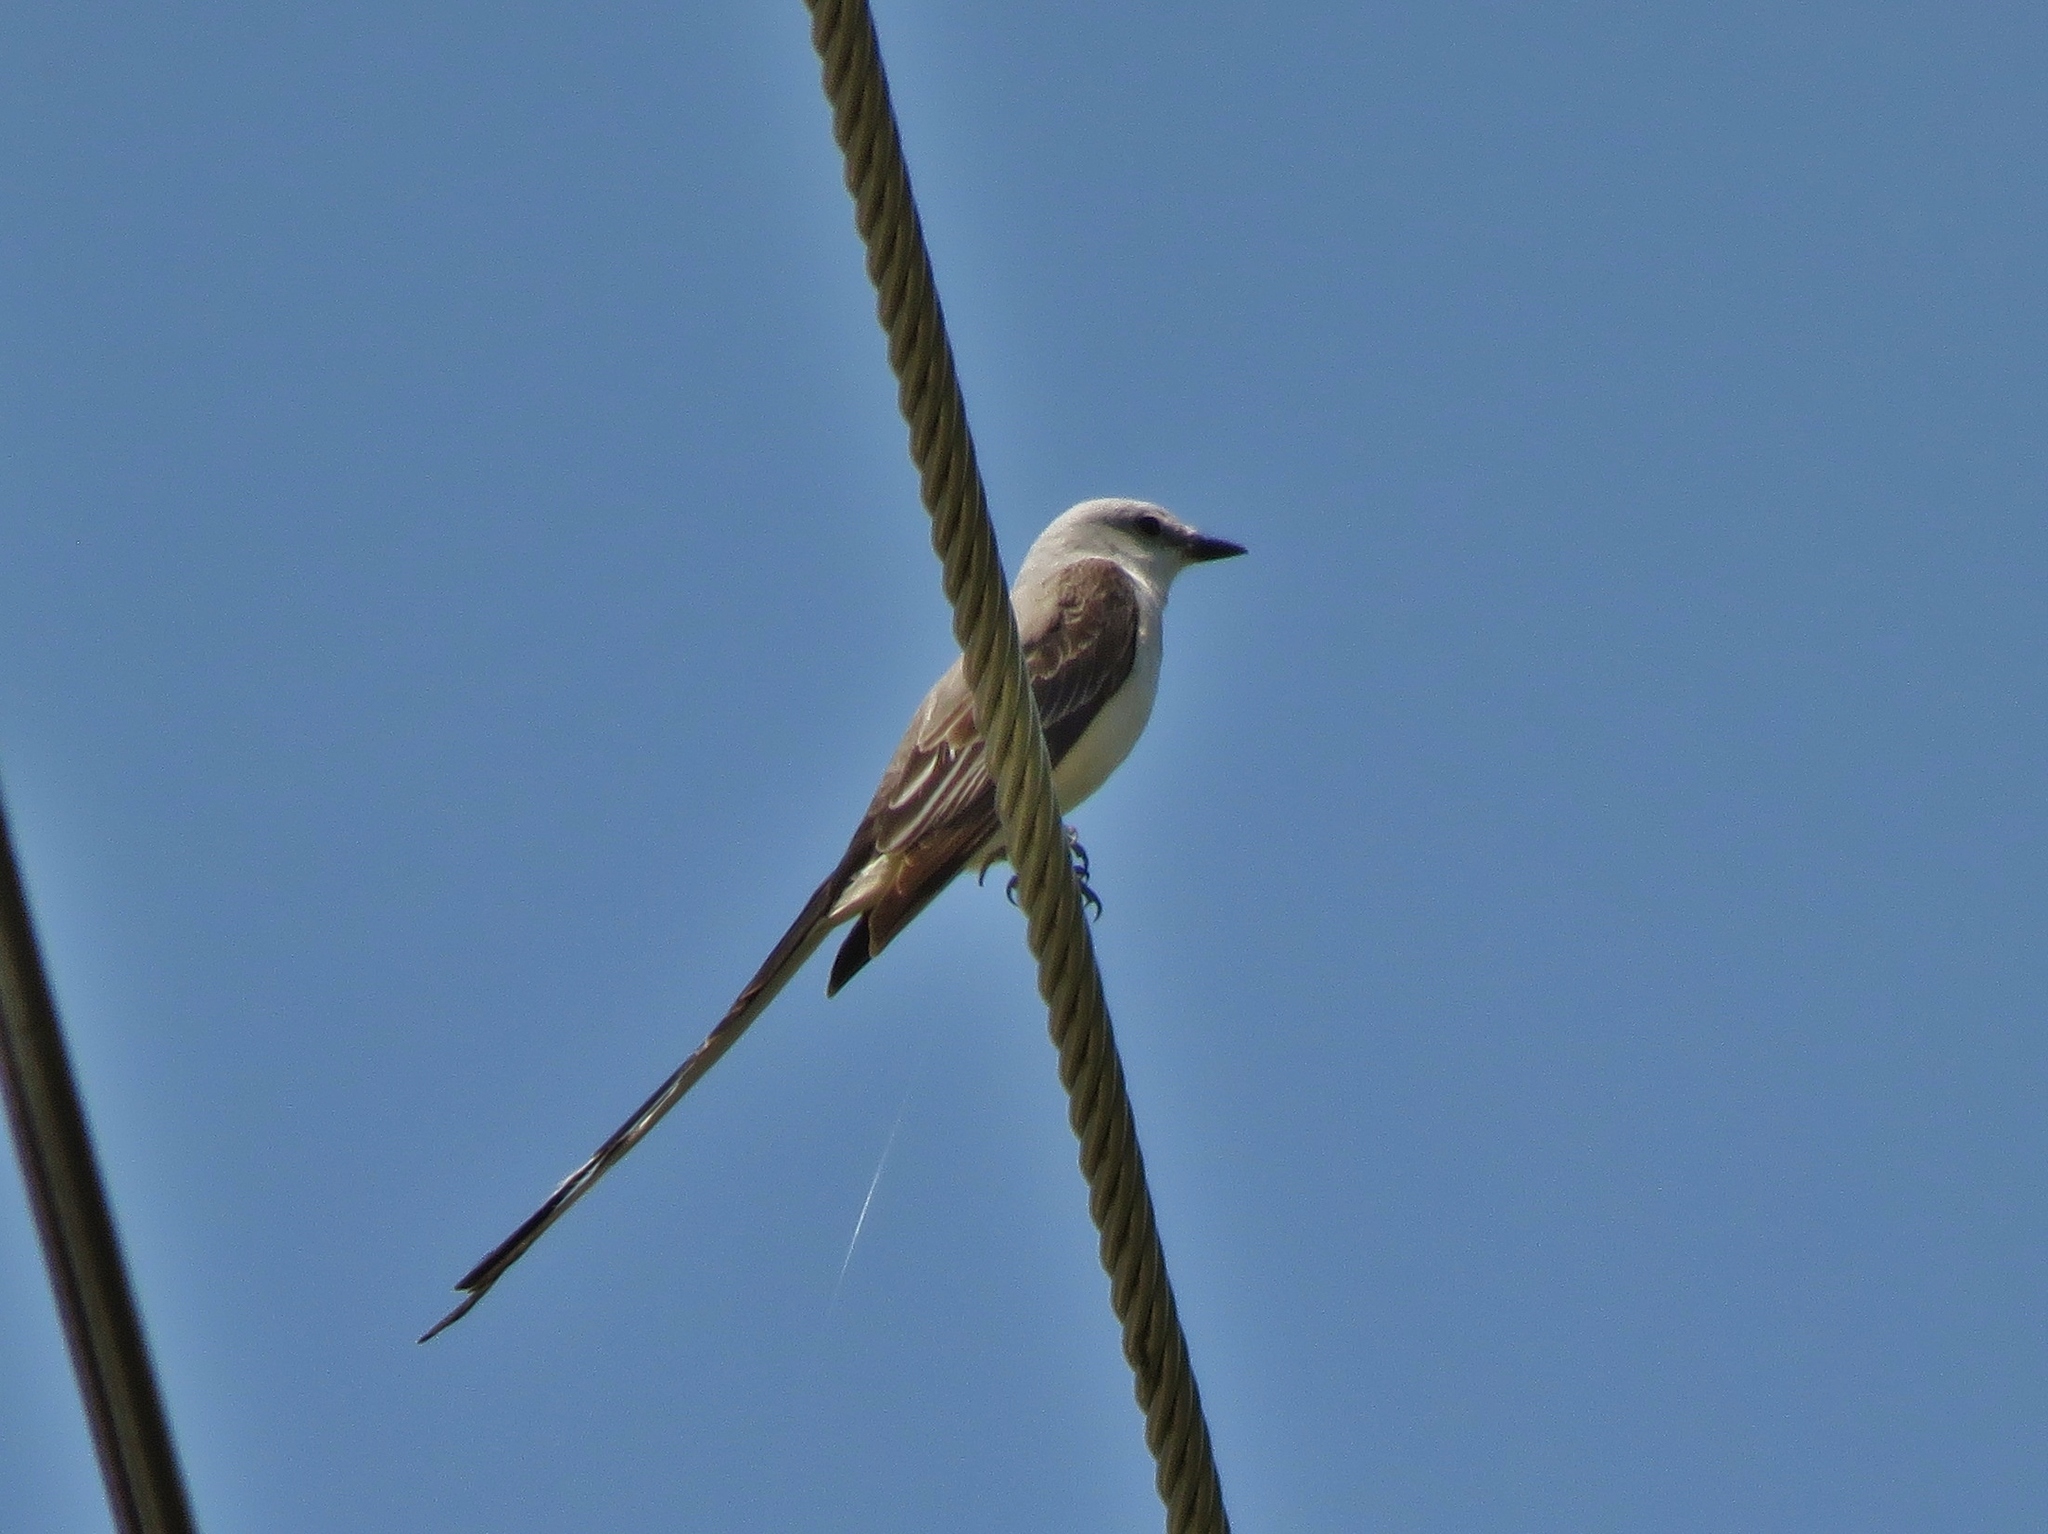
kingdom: Animalia
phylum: Chordata
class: Aves
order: Passeriformes
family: Tyrannidae
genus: Tyrannus
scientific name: Tyrannus forficatus
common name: Scissor-tailed flycatcher
